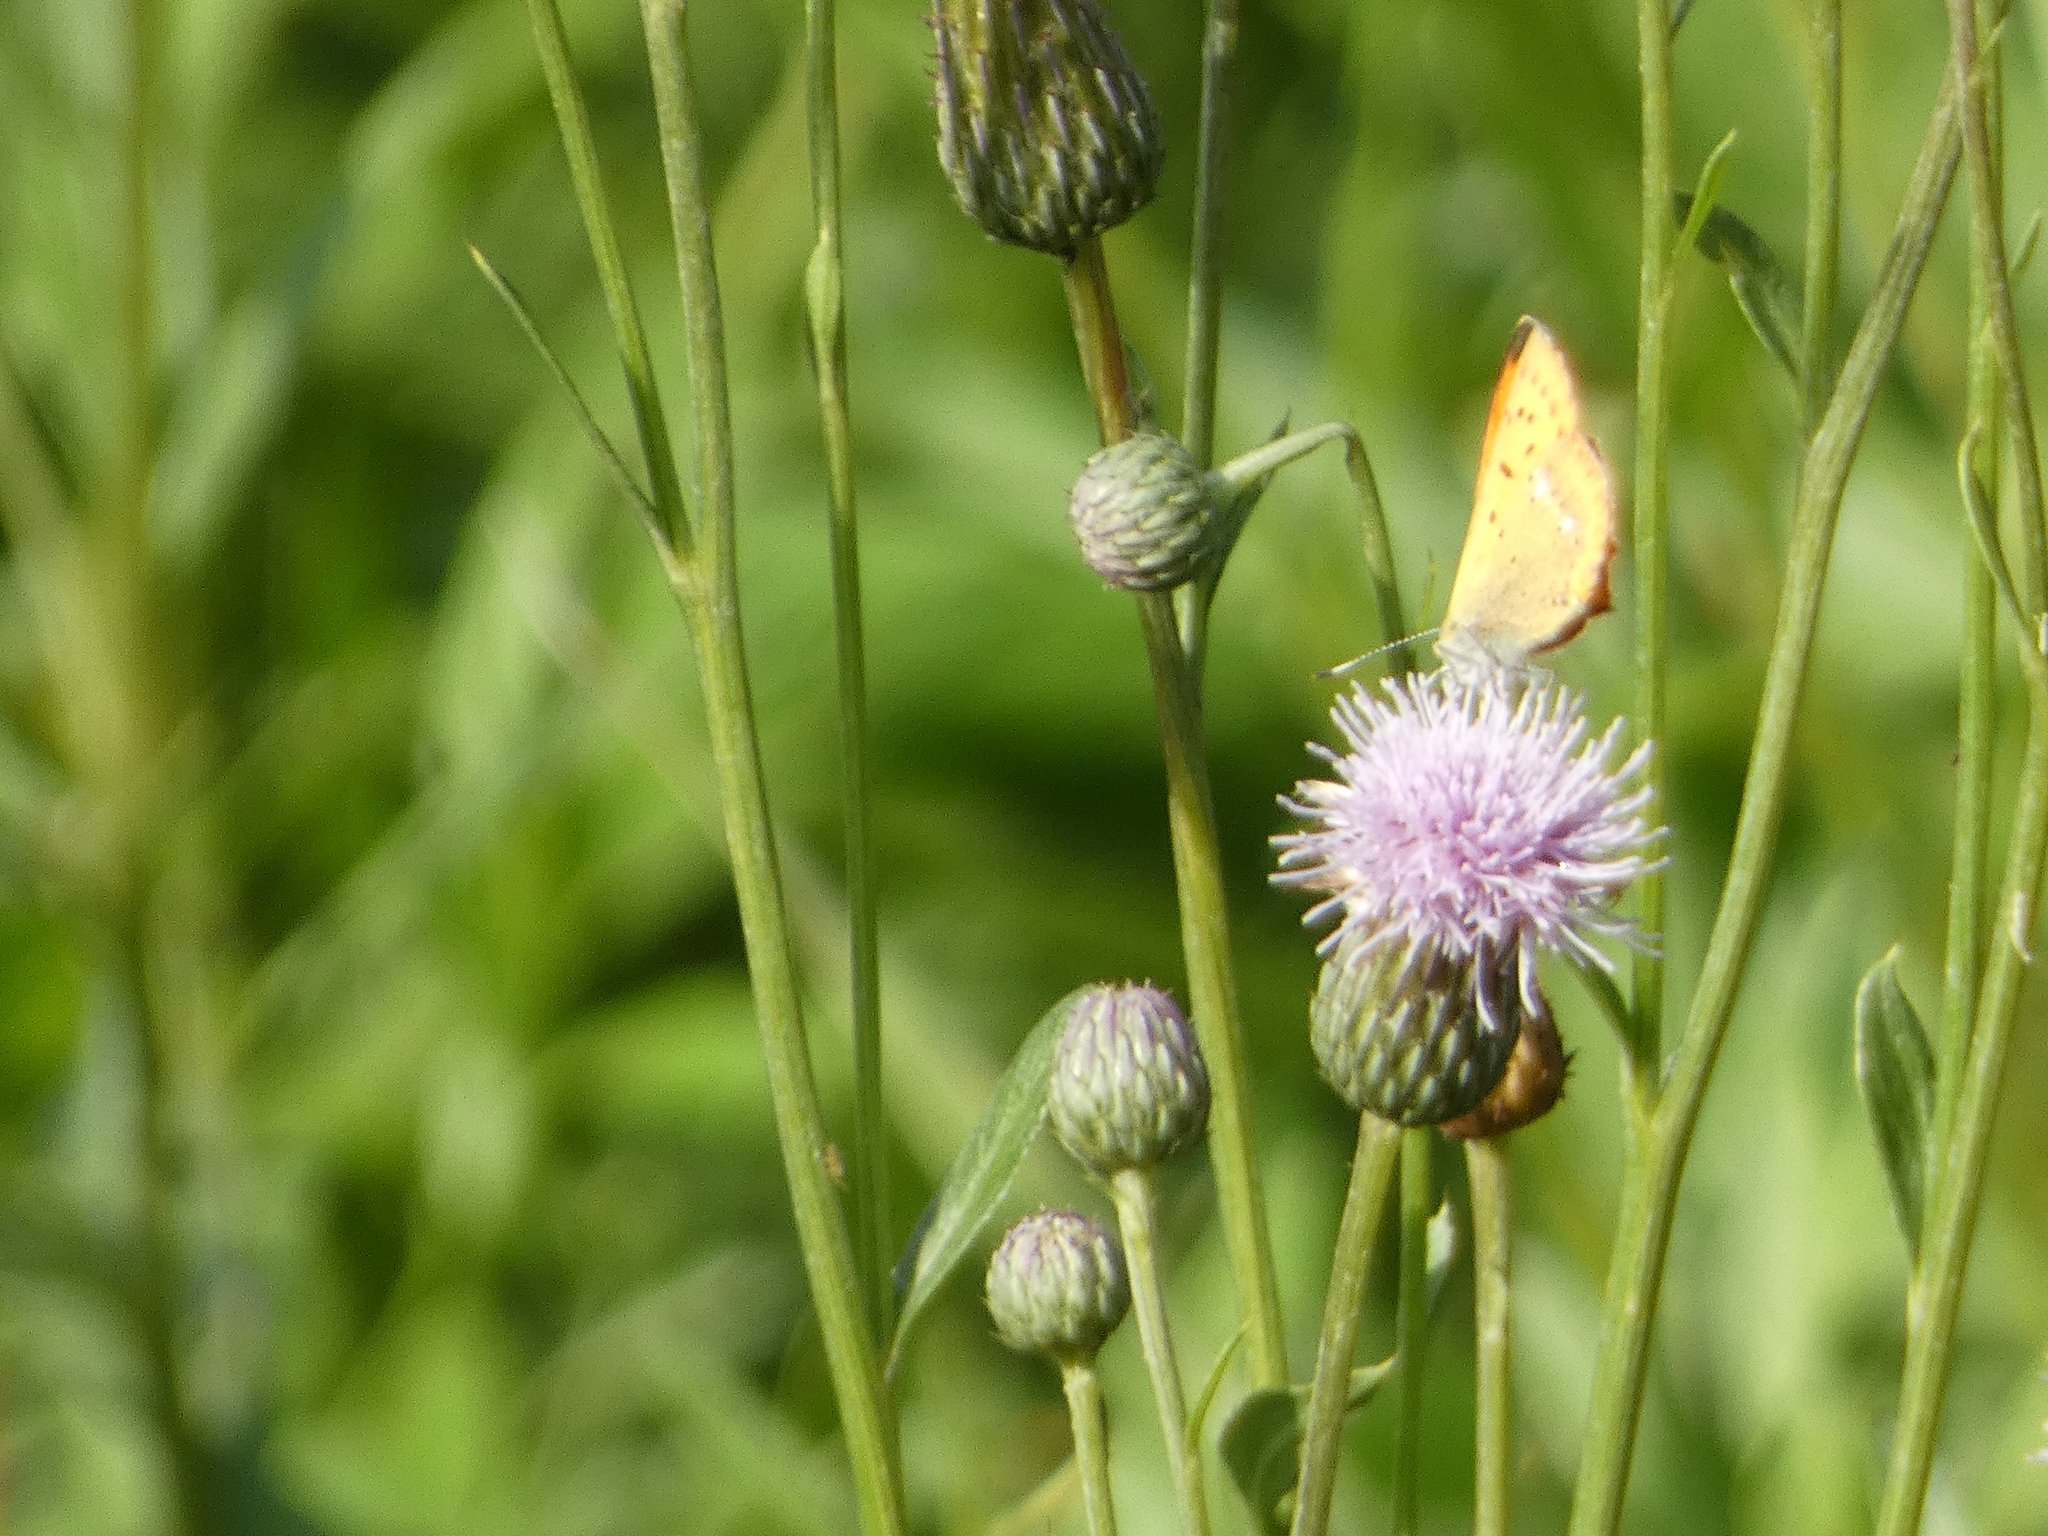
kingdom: Animalia
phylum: Arthropoda
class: Insecta
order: Lepidoptera
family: Lycaenidae
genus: Lycaena
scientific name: Lycaena virgaureae
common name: Scarce copper
